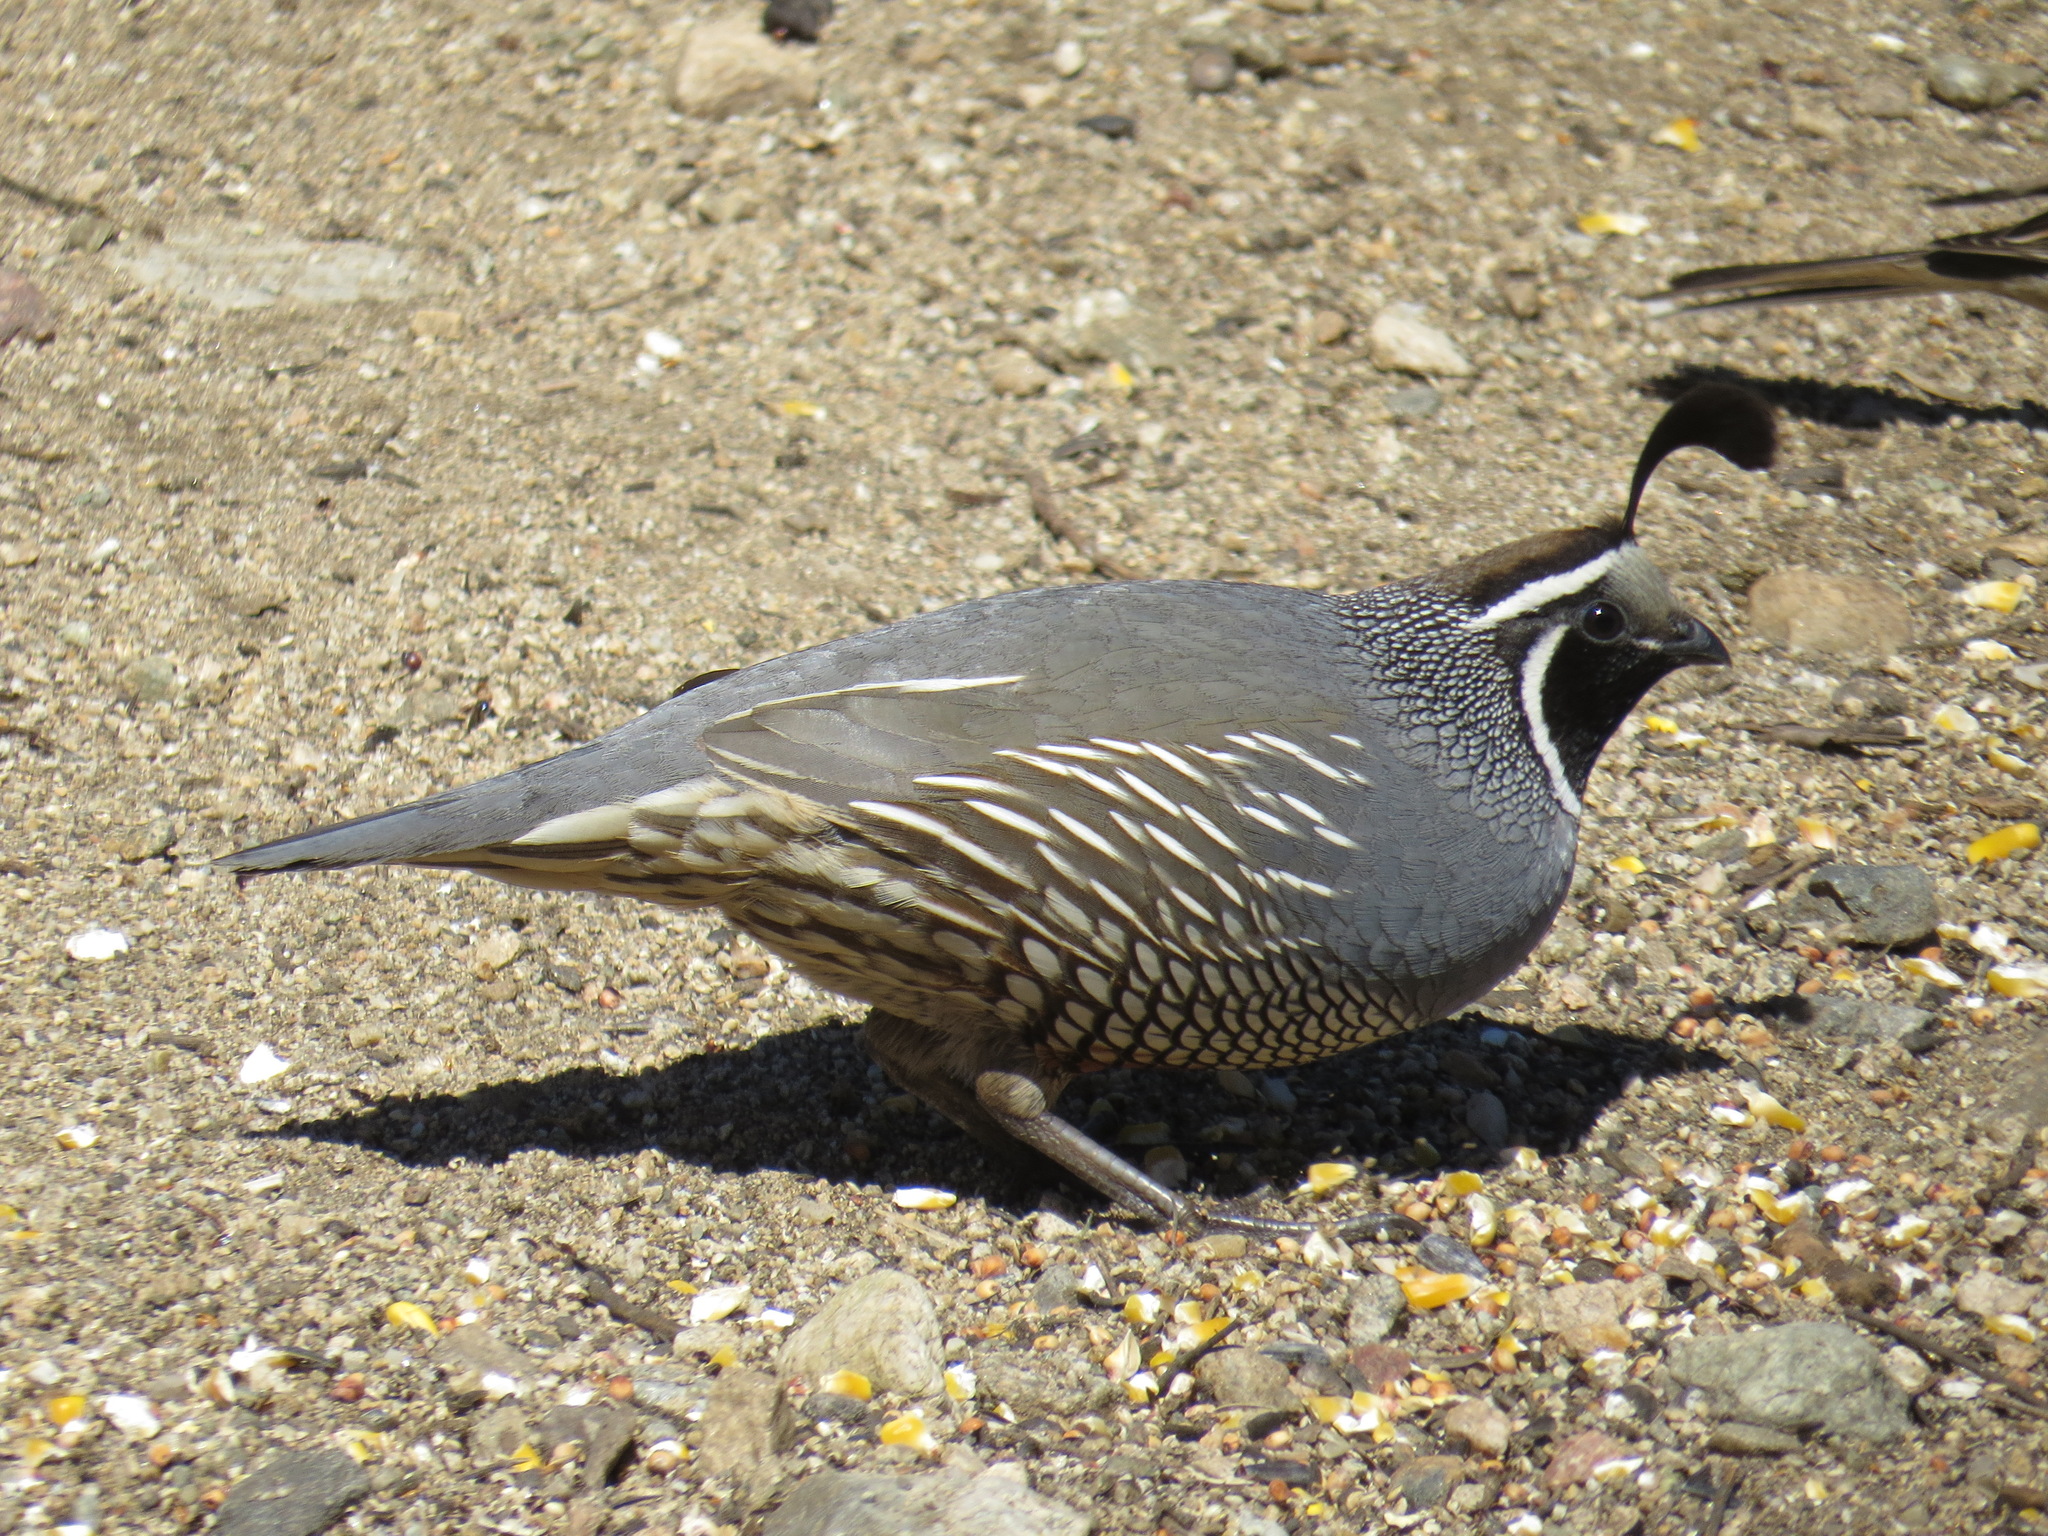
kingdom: Animalia
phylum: Chordata
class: Aves
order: Galliformes
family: Odontophoridae
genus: Callipepla
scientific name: Callipepla californica
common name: California quail
